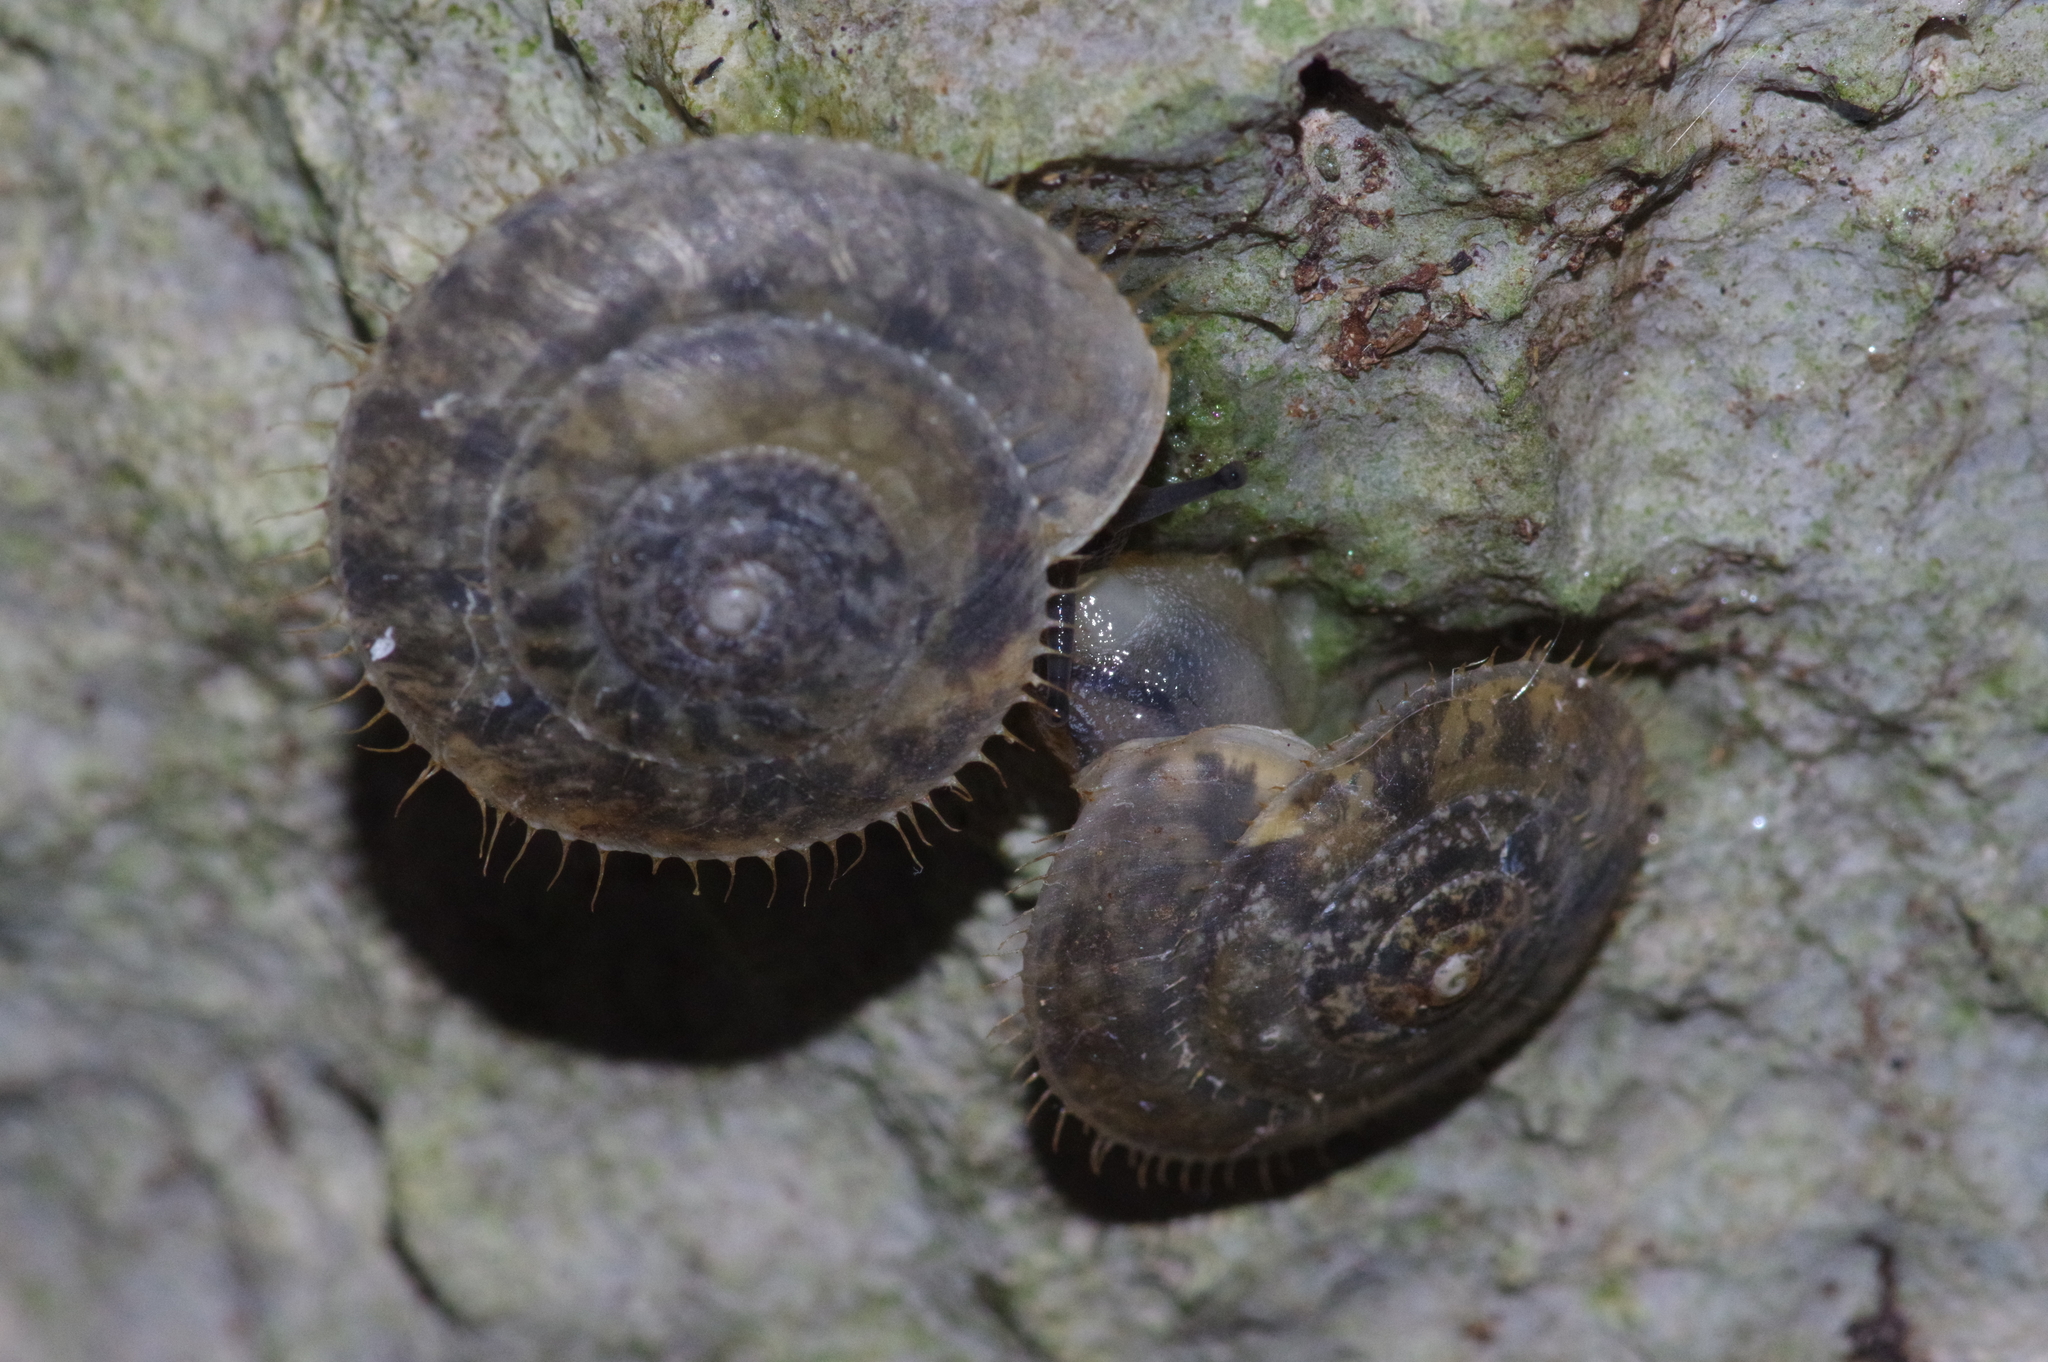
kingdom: Animalia
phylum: Mollusca
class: Gastropoda
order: Stylommatophora
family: Camaenidae
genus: Plectotropis
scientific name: Plectotropis elegantissima
